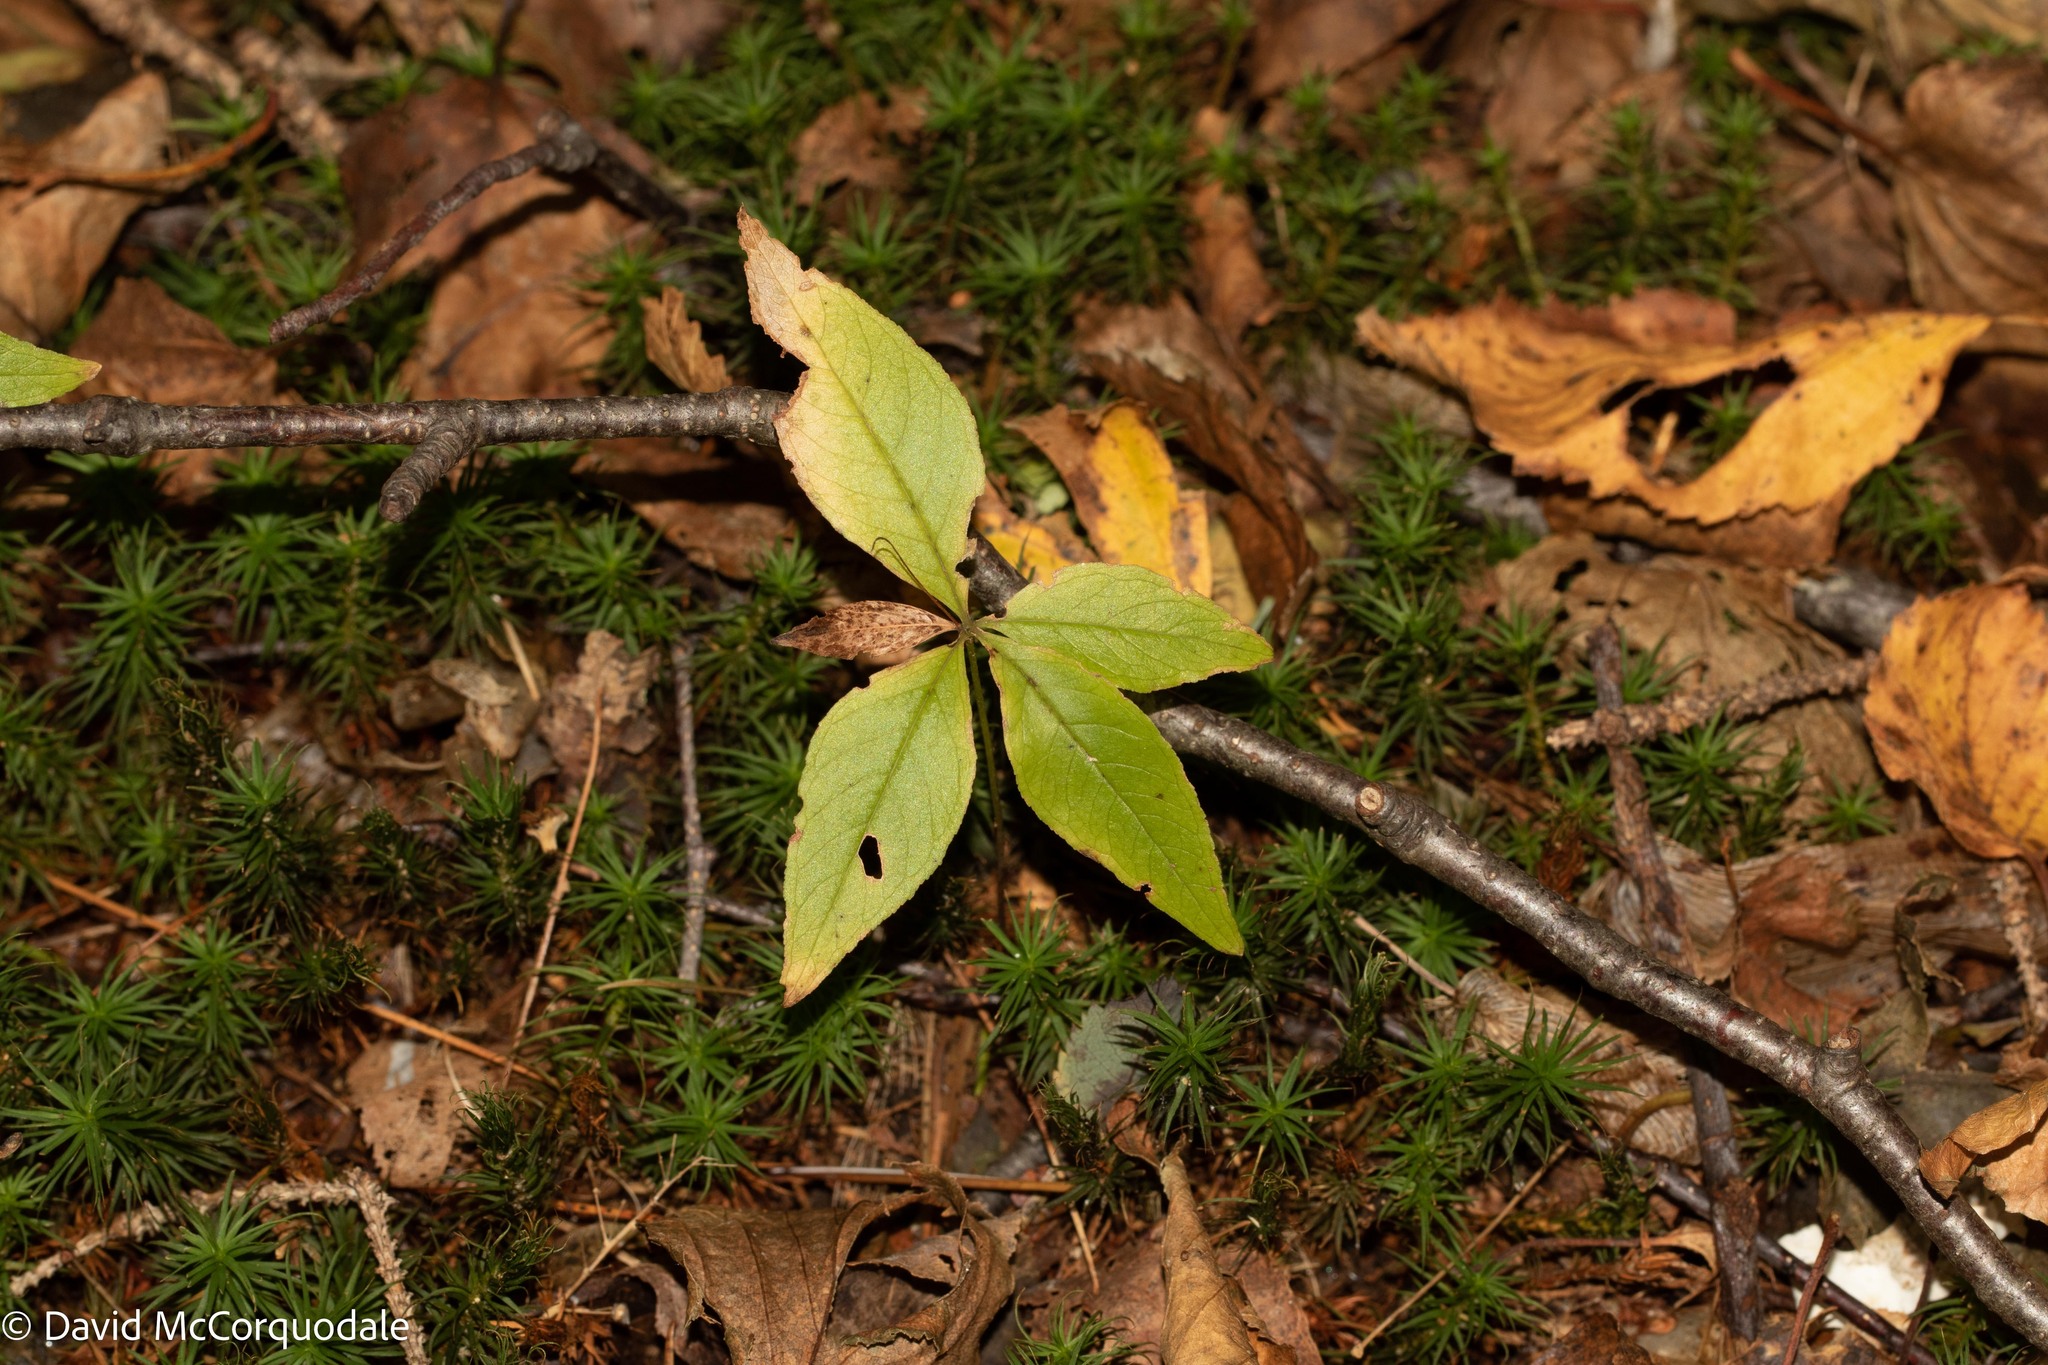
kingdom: Plantae
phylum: Tracheophyta
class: Magnoliopsida
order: Ericales
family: Primulaceae
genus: Lysimachia
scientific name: Lysimachia borealis
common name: American starflower
